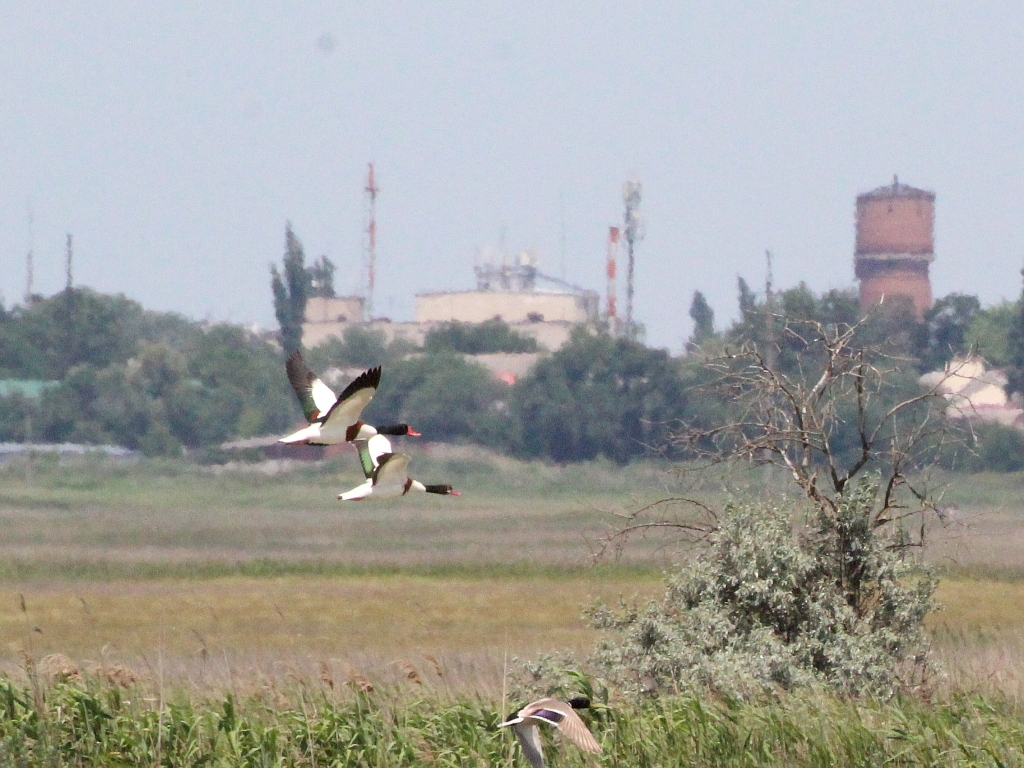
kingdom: Animalia
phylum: Chordata
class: Aves
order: Anseriformes
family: Anatidae
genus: Tadorna
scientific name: Tadorna tadorna
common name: Common shelduck
